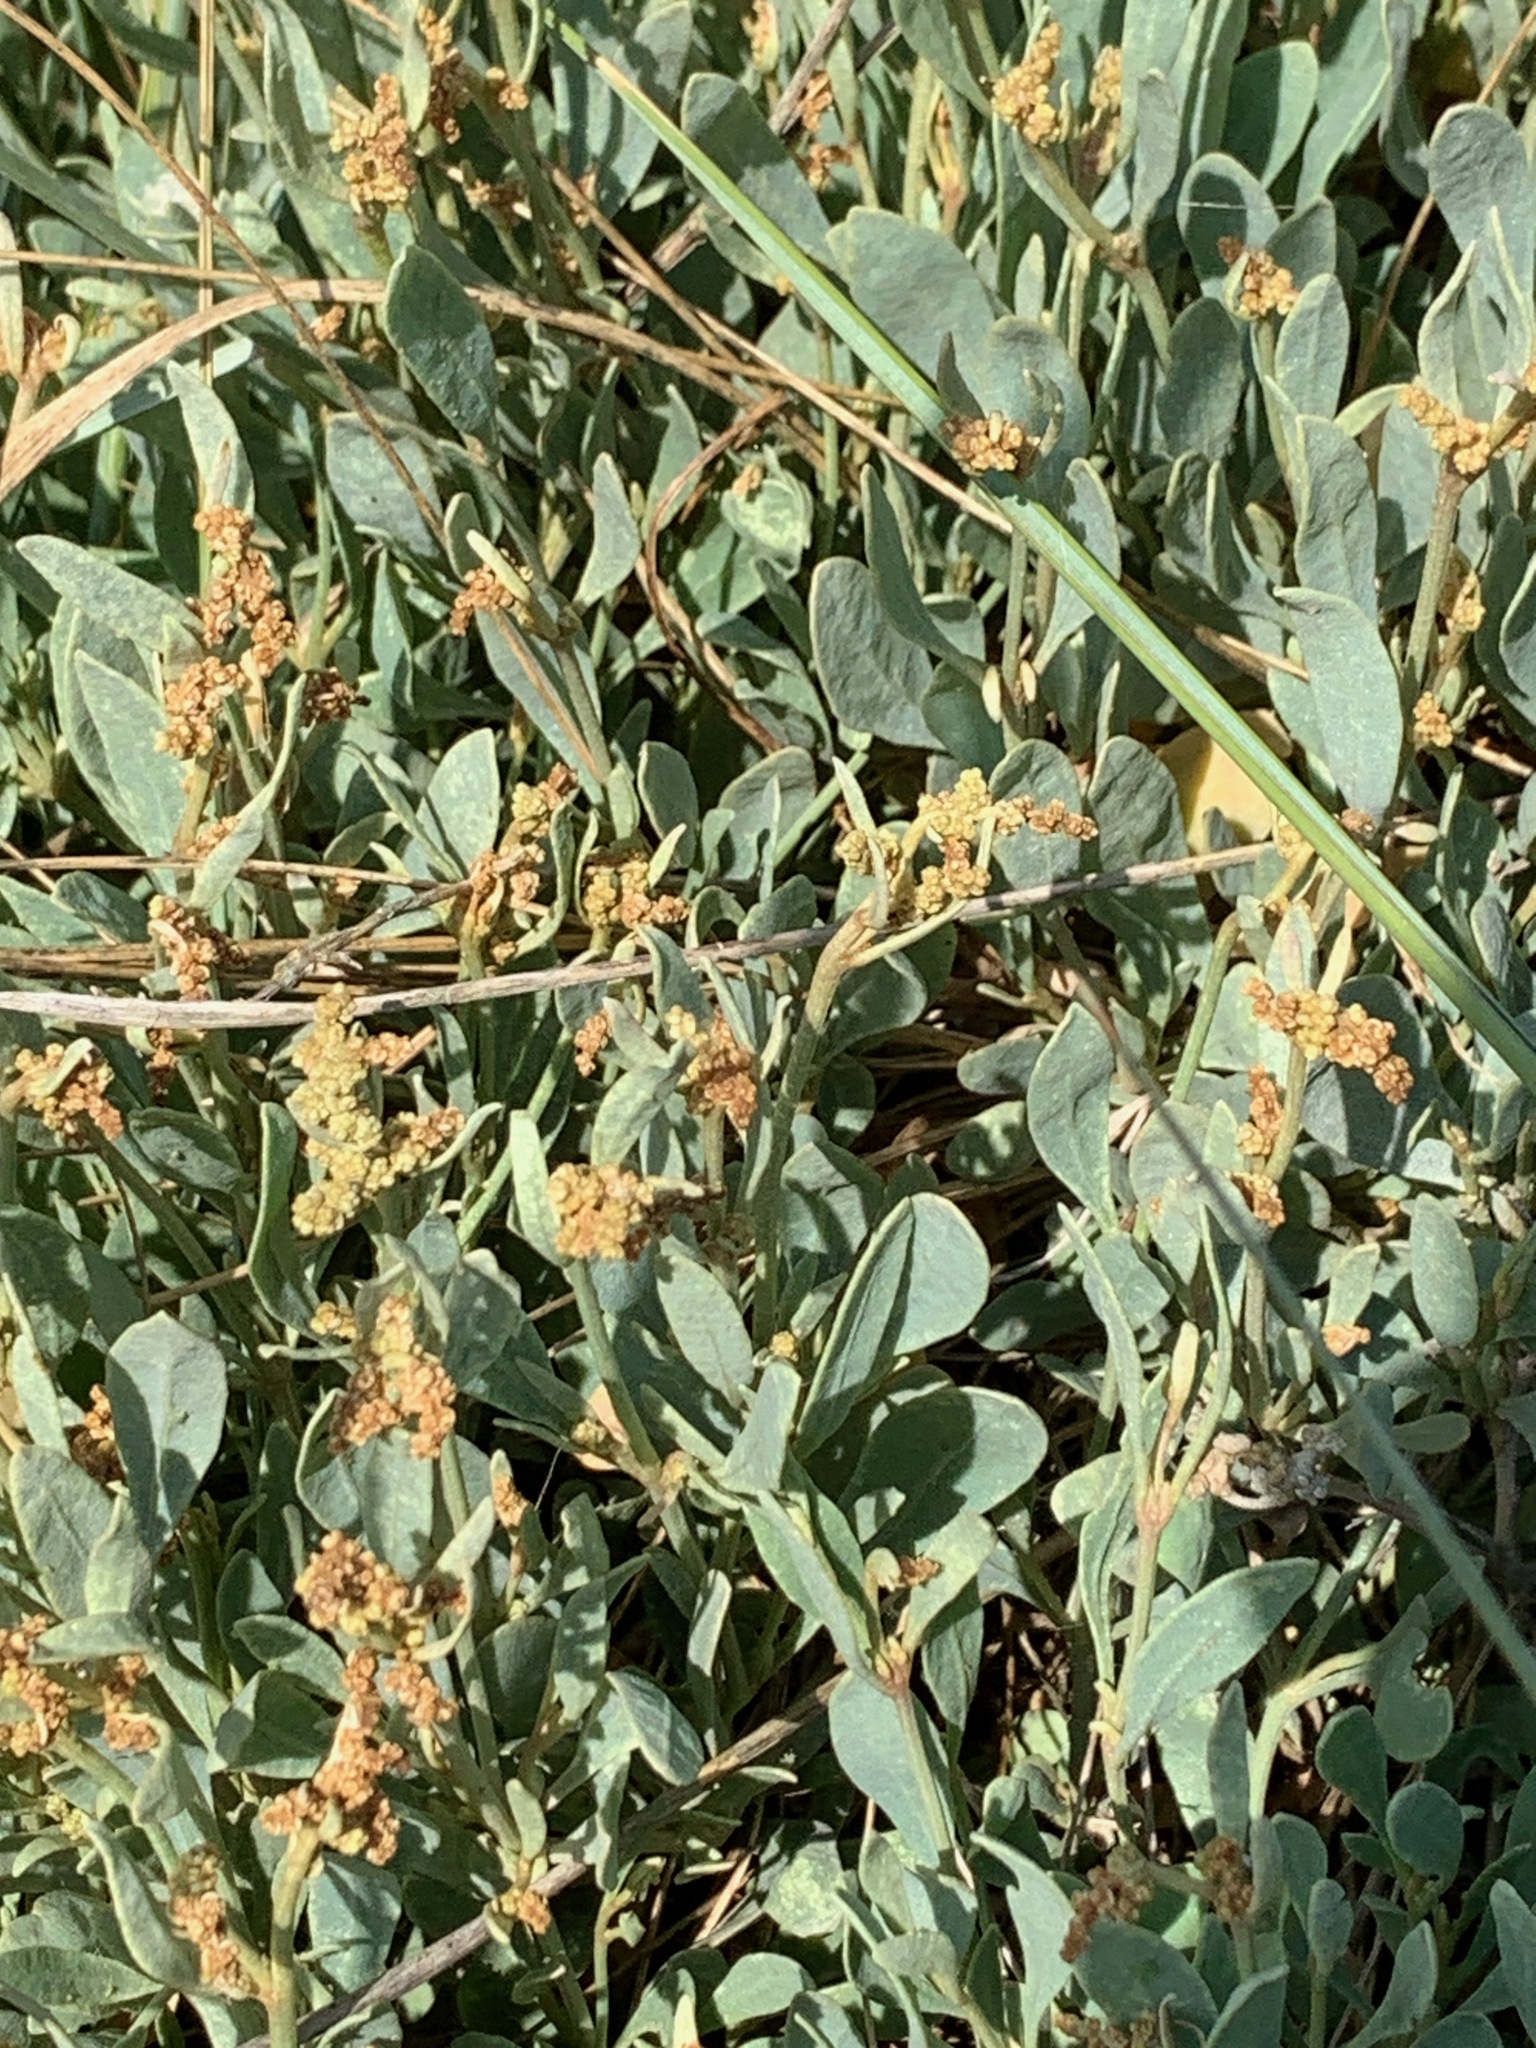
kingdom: Plantae
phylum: Tracheophyta
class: Magnoliopsida
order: Caryophyllales
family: Amaranthaceae
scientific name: Amaranthaceae
